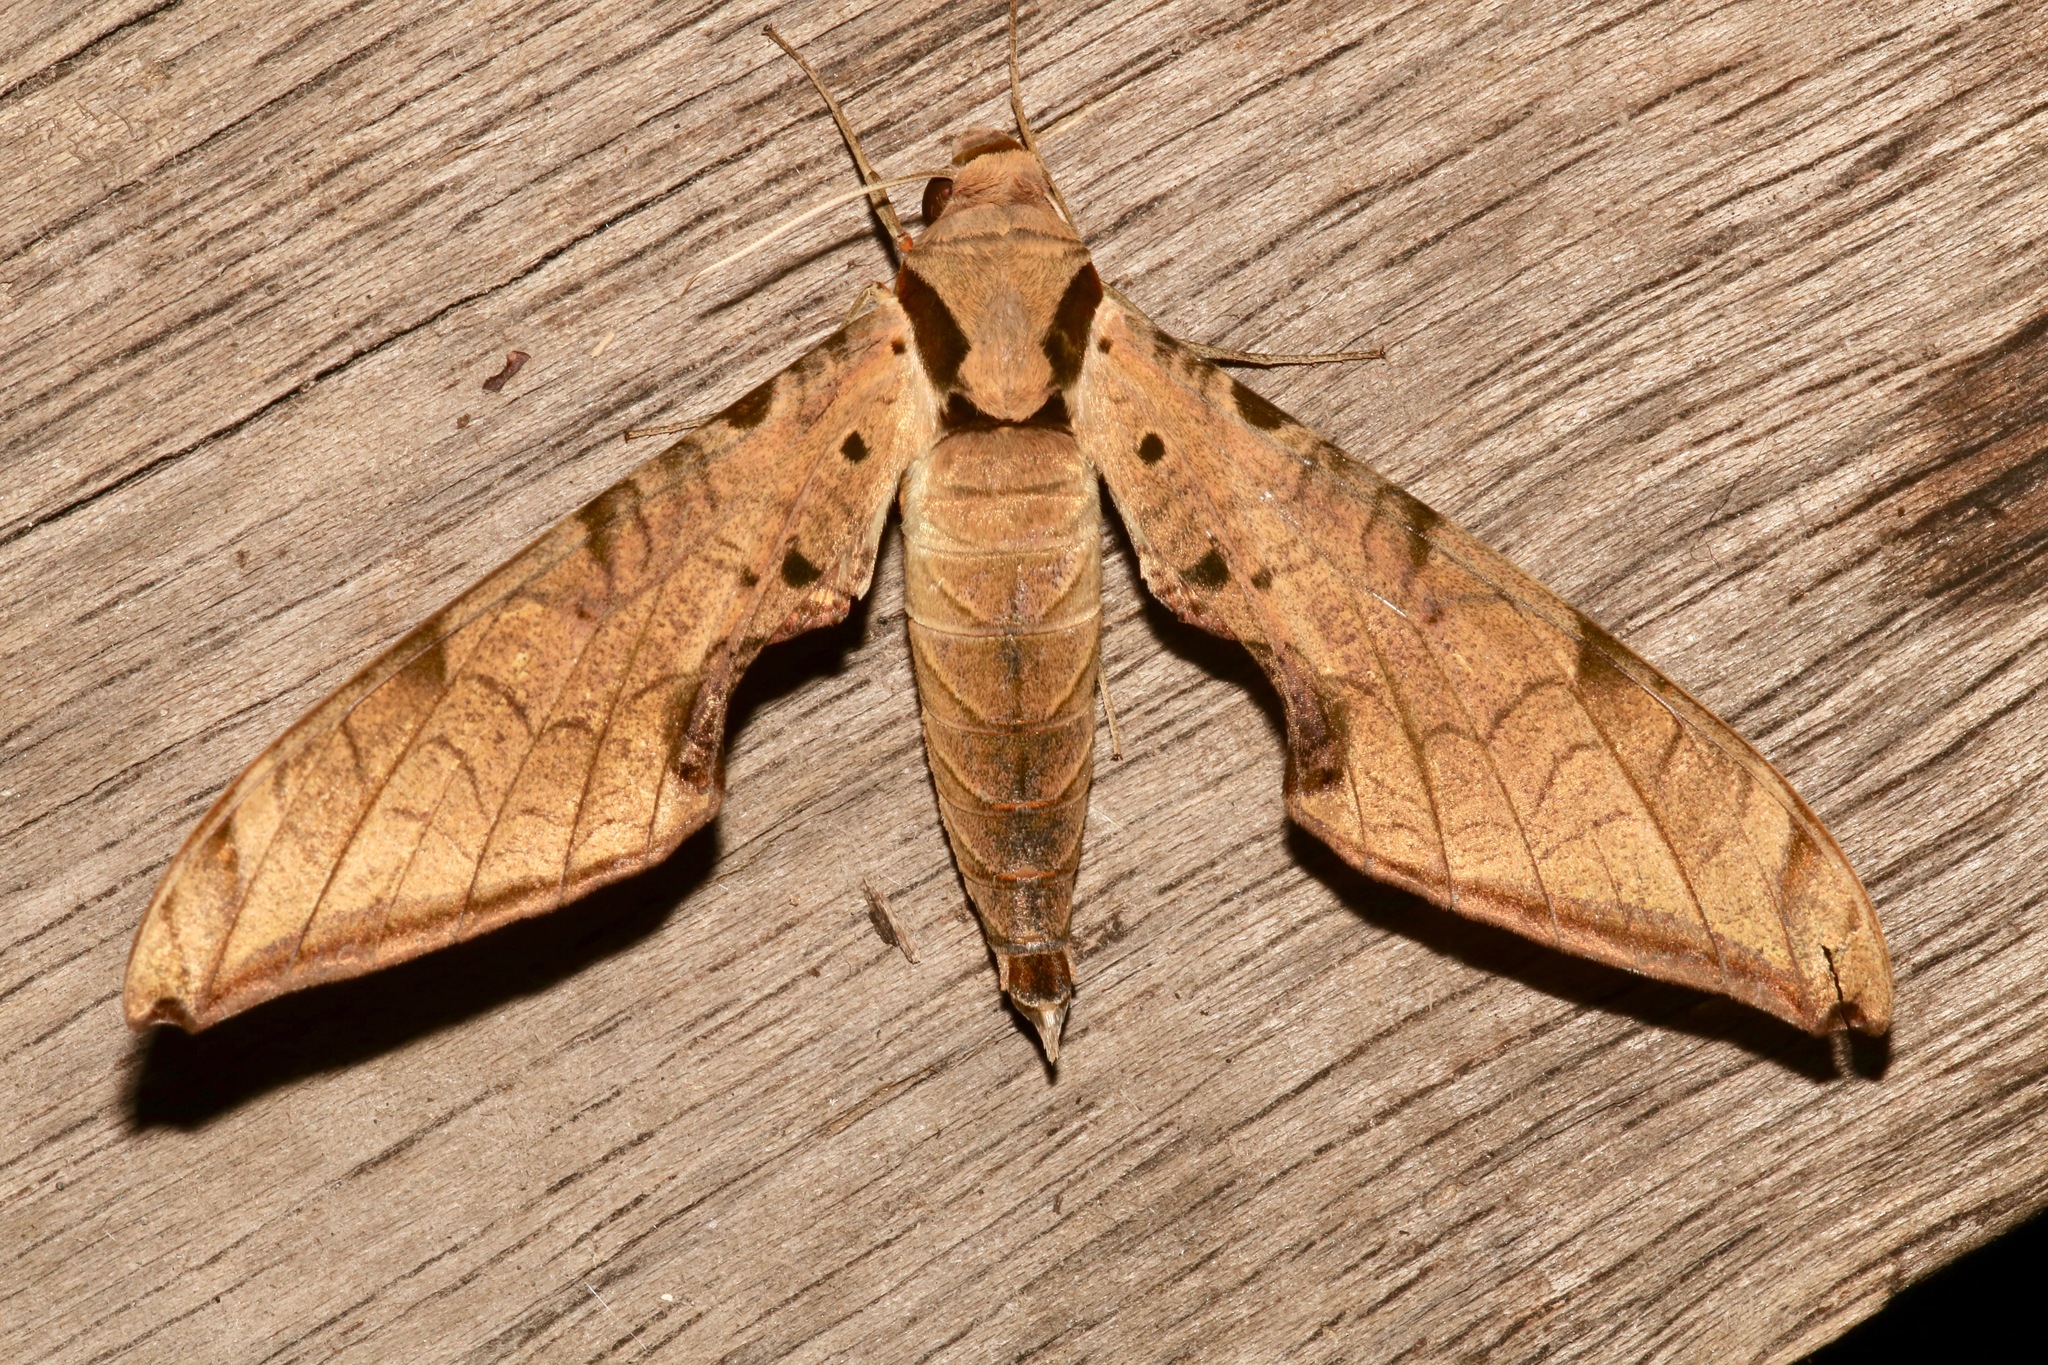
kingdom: Animalia
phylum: Arthropoda
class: Insecta
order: Lepidoptera
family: Sphingidae
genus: Protambulyx
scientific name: Protambulyx strigilis
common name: Streaked sphinx
